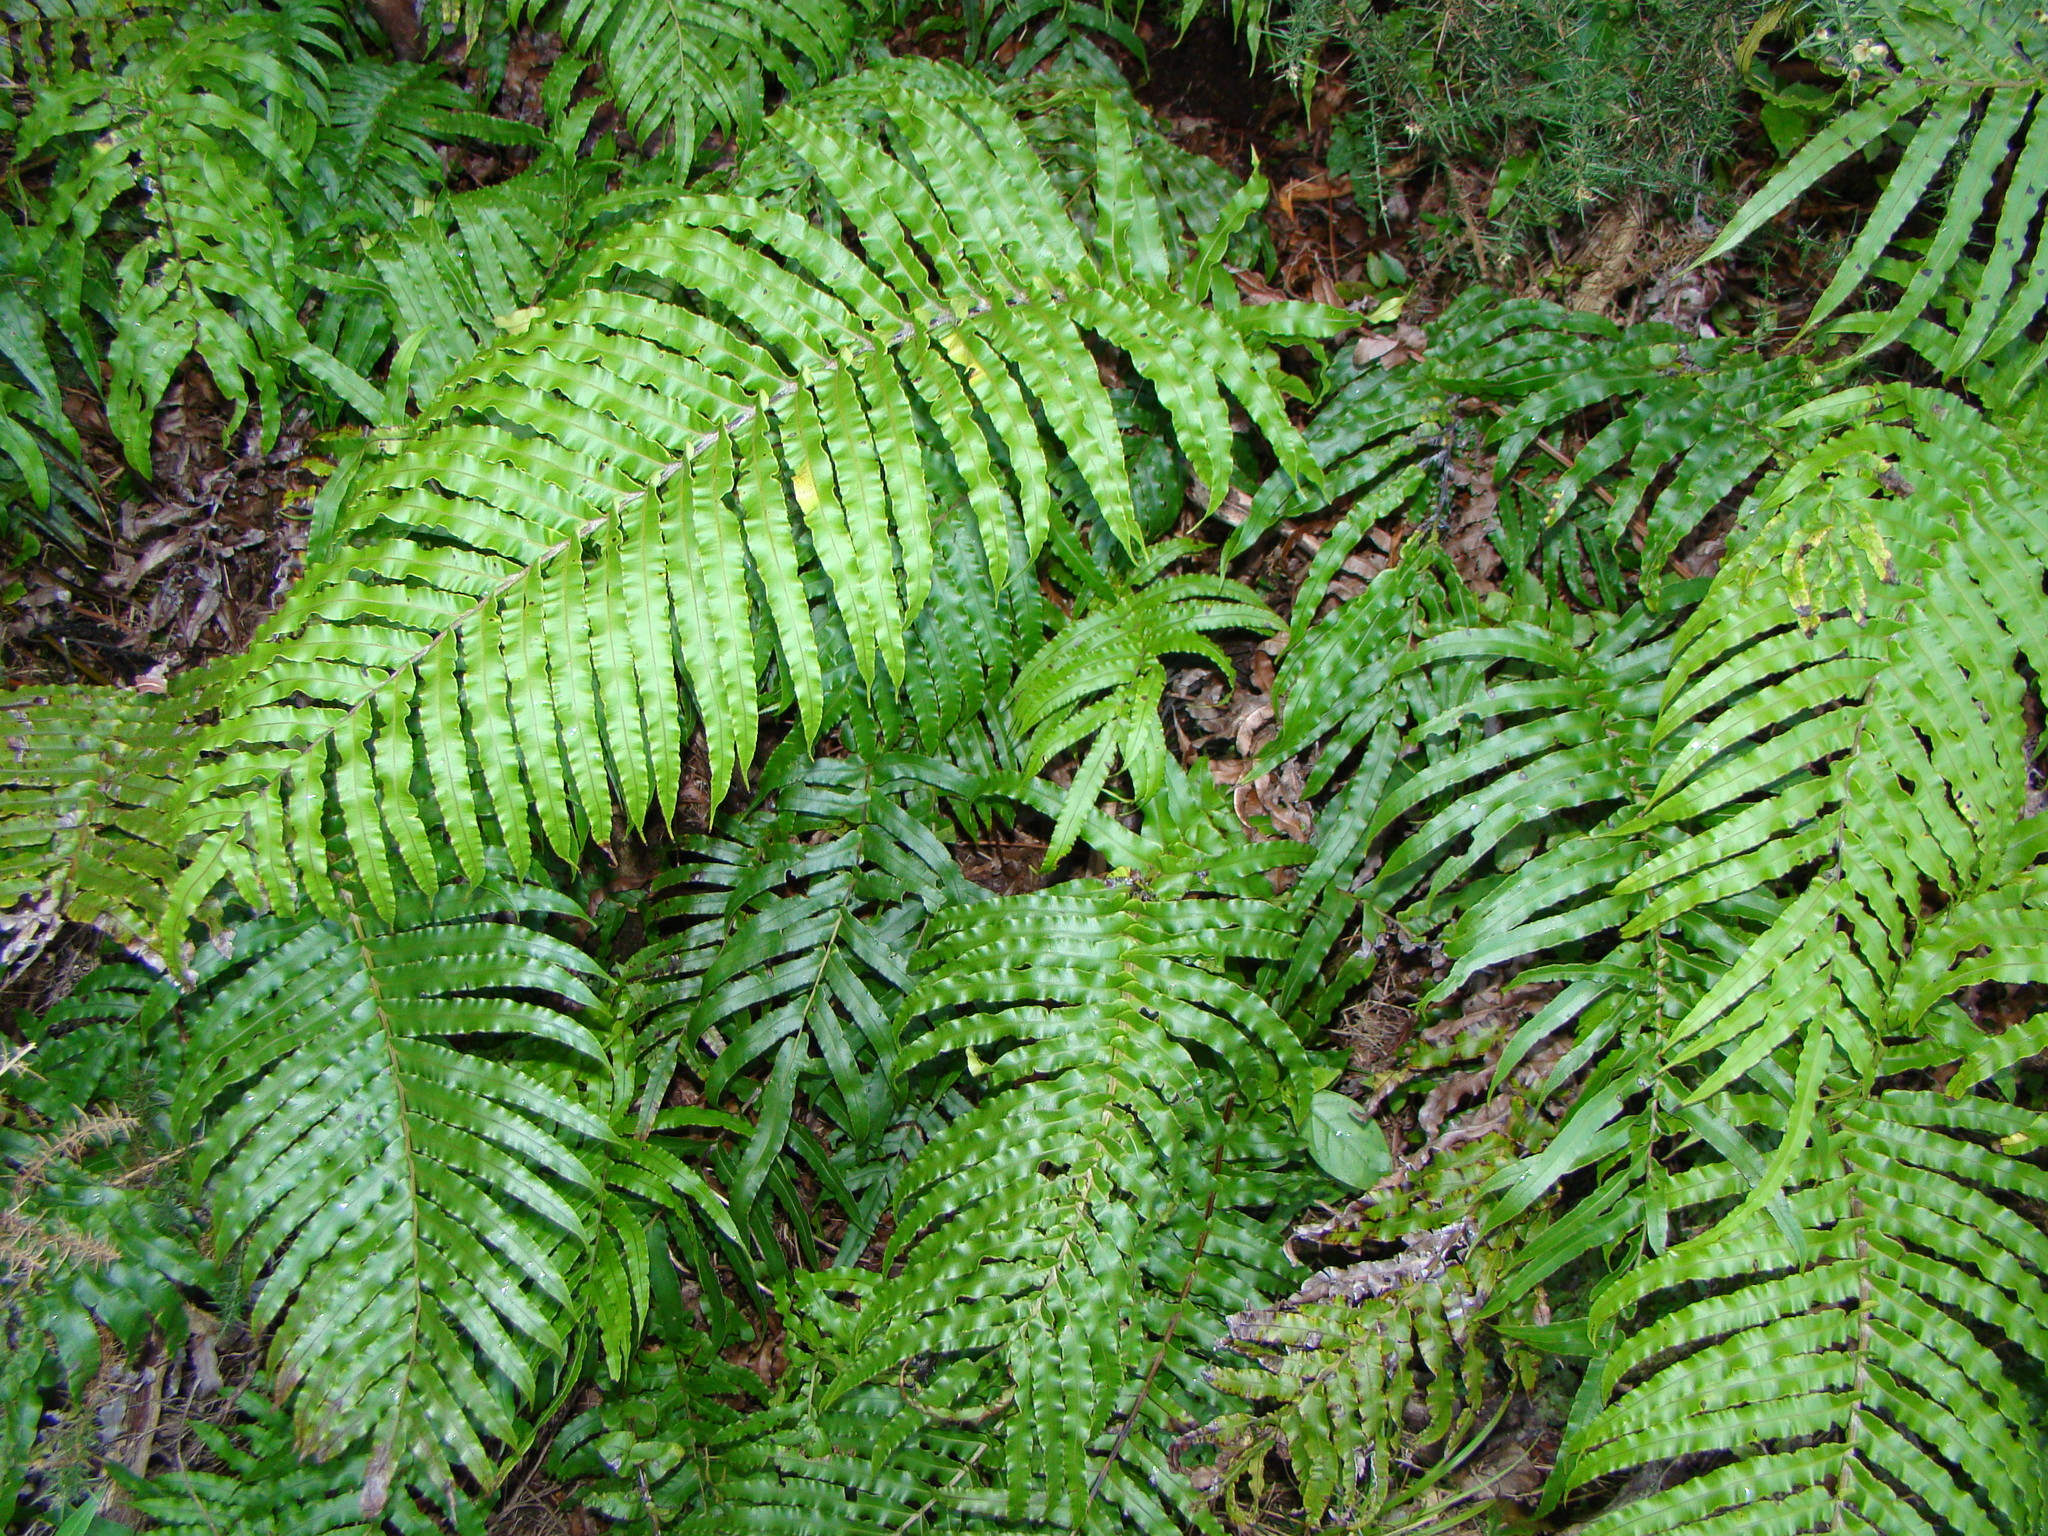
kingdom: Plantae
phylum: Tracheophyta
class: Polypodiopsida
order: Polypodiales
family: Blechnaceae
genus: Parablechnum
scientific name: Parablechnum novae-zelandiae
